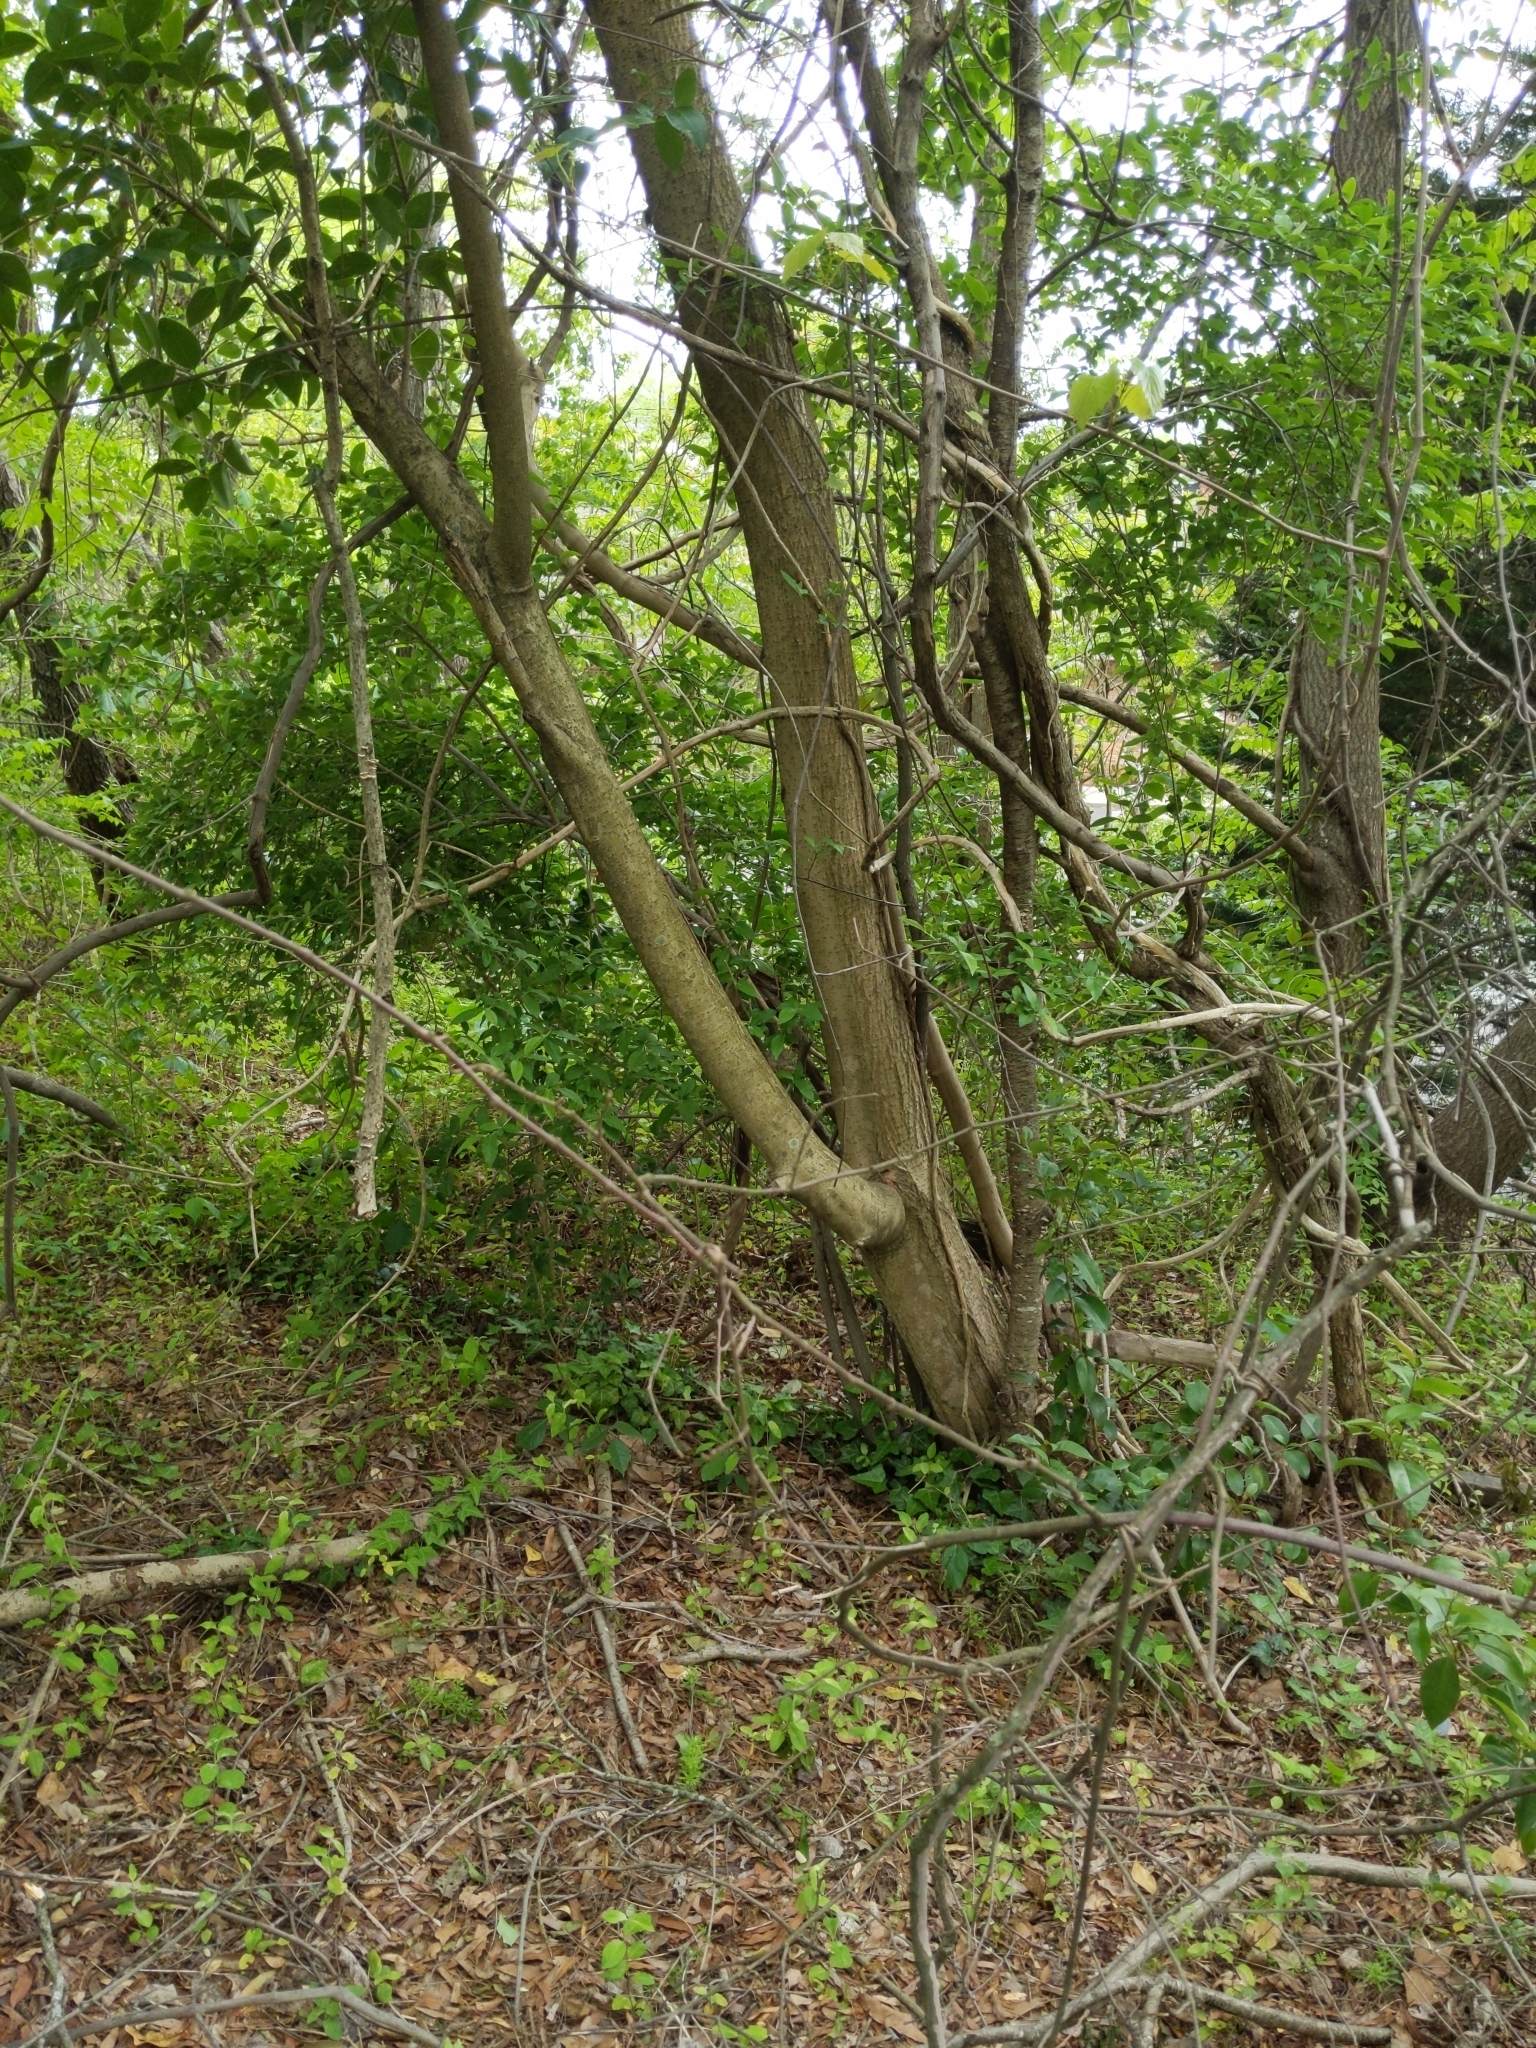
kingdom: Plantae
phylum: Tracheophyta
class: Magnoliopsida
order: Lamiales
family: Oleaceae
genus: Ligustrum
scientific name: Ligustrum lucidum
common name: Glossy privet
